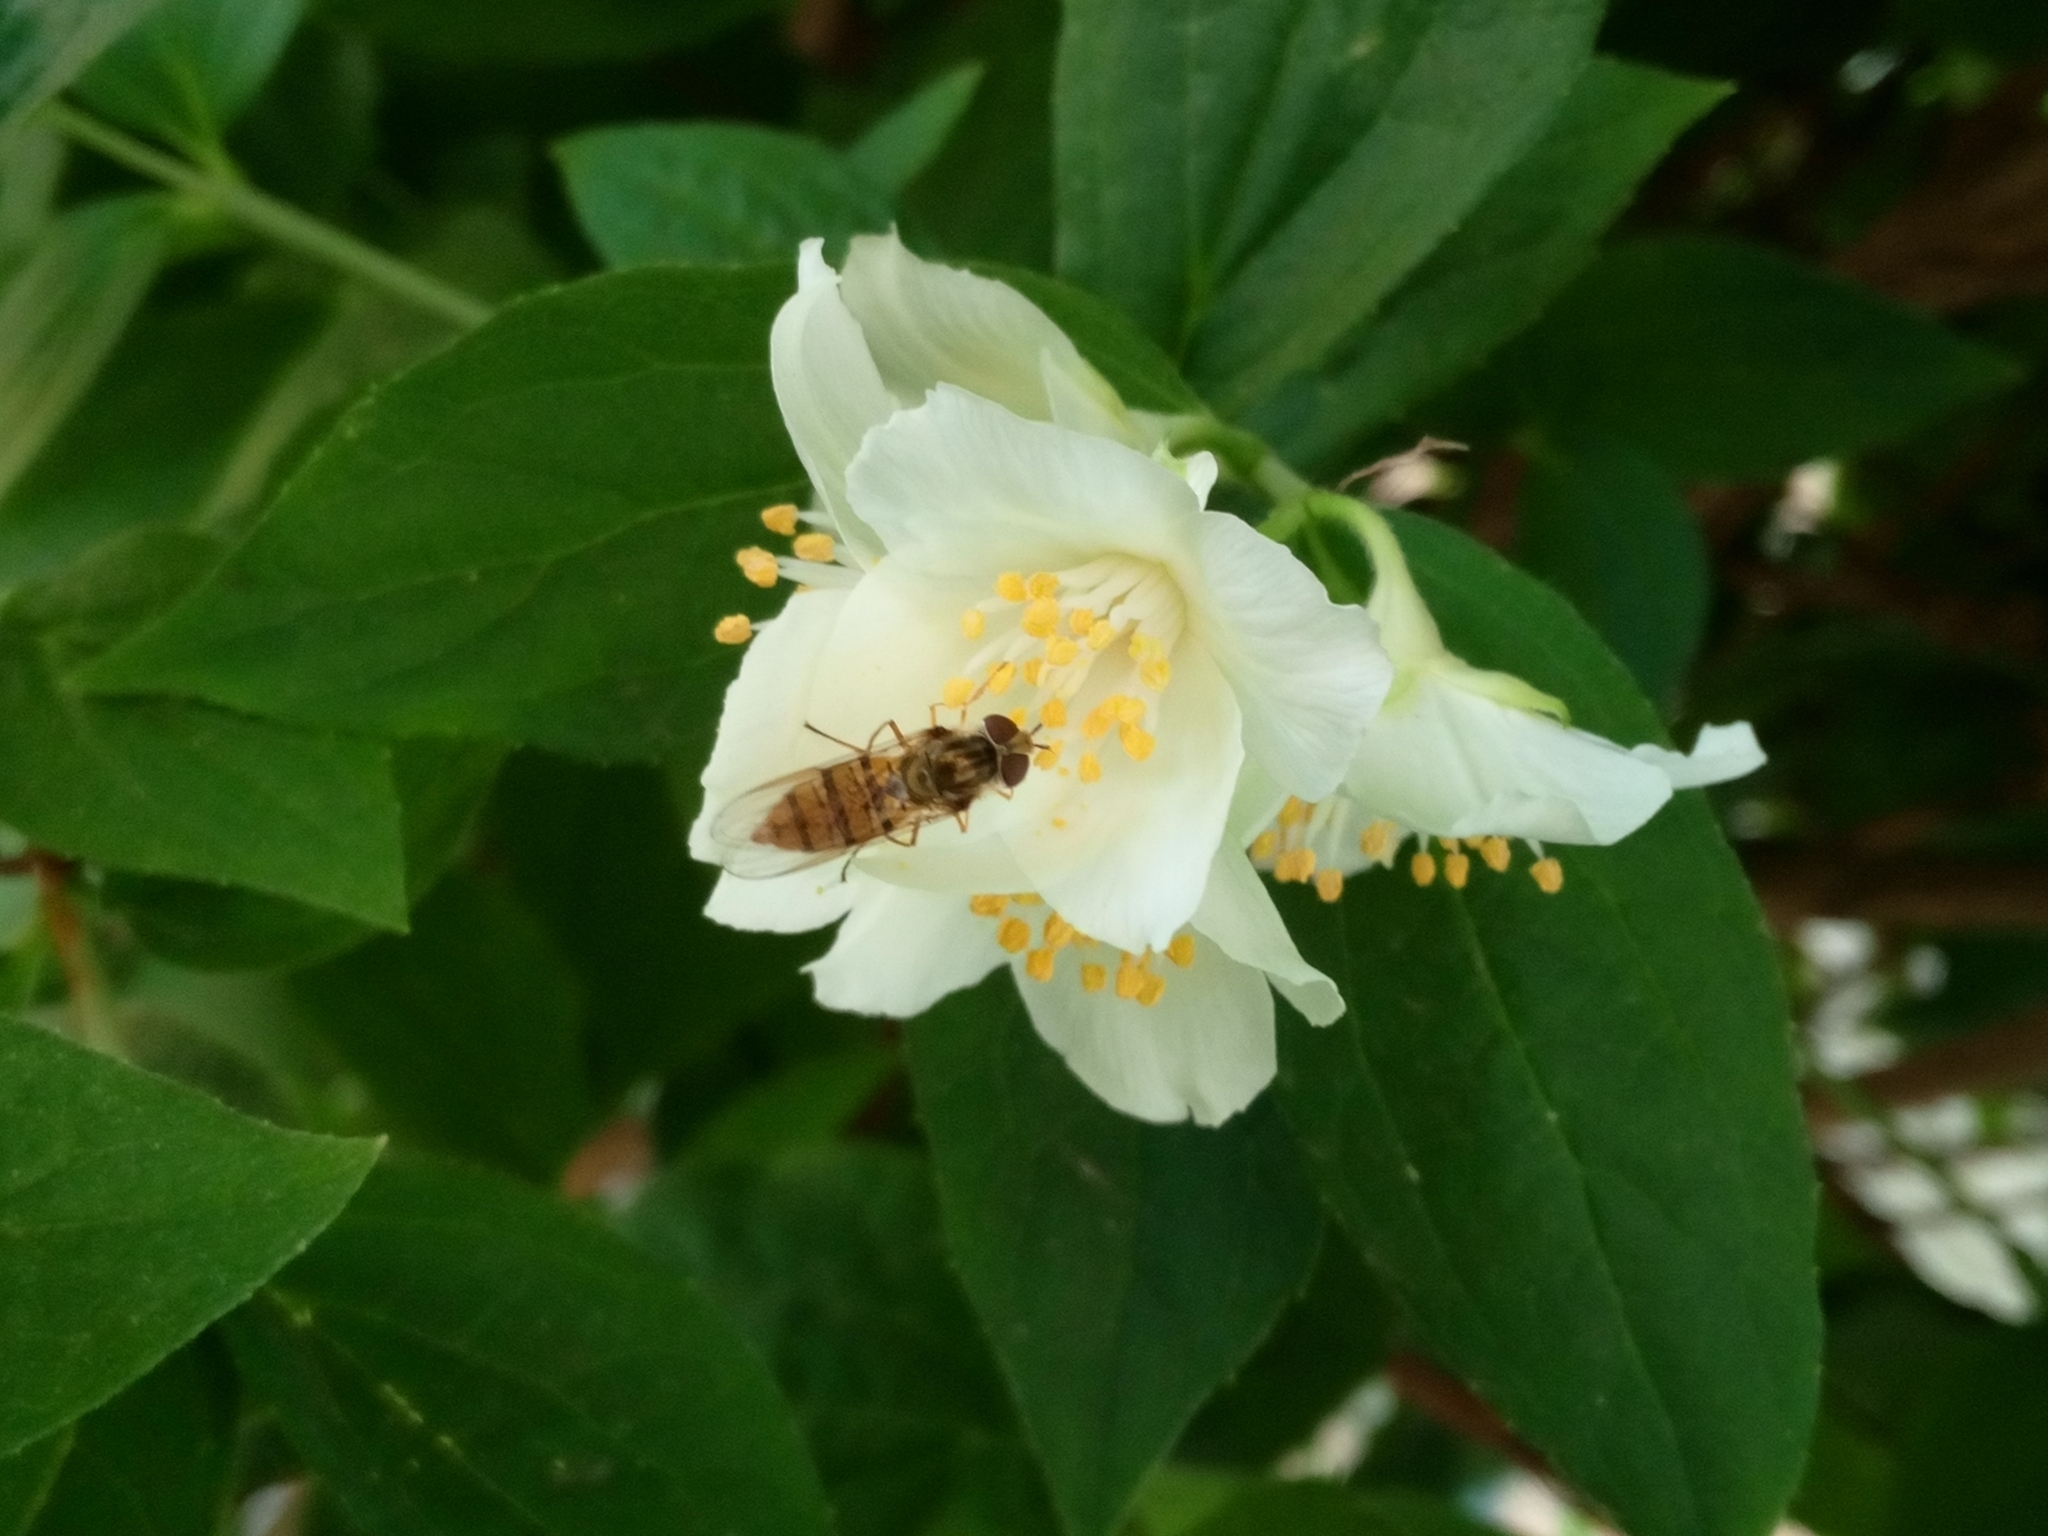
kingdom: Animalia
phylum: Arthropoda
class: Insecta
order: Diptera
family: Syrphidae
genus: Episyrphus
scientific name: Episyrphus balteatus
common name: Marmalade hoverfly
